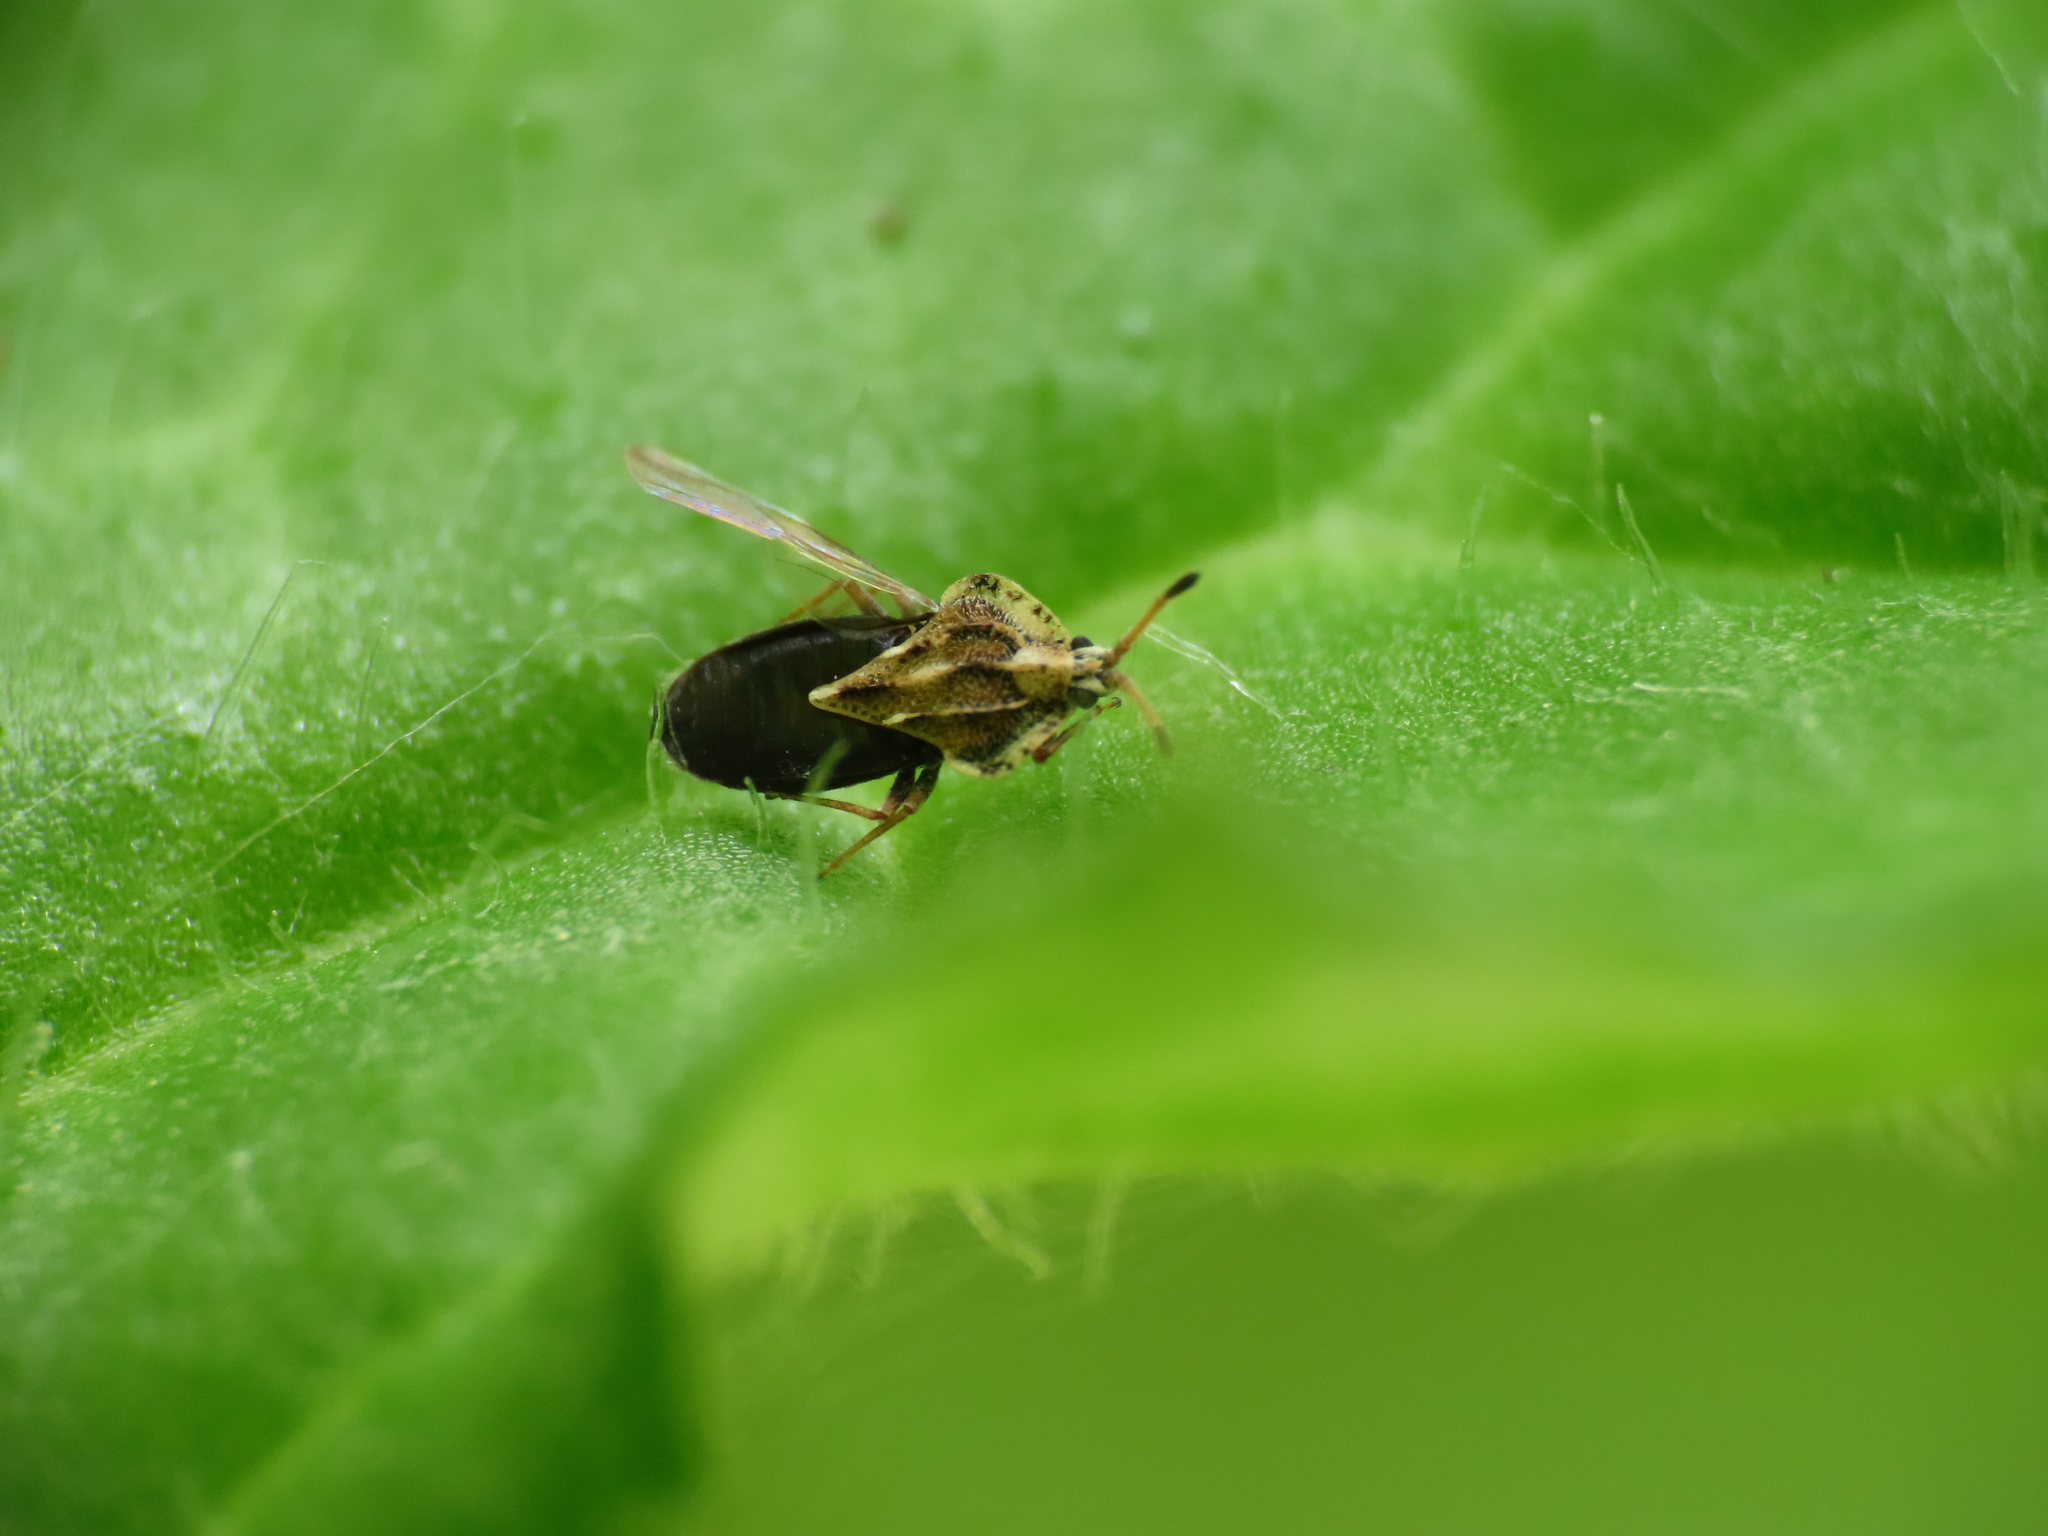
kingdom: Animalia
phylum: Arthropoda
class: Insecta
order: Hemiptera
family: Tingidae
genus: Tingis
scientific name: Tingis cardui
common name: Spear thistle lacebug
